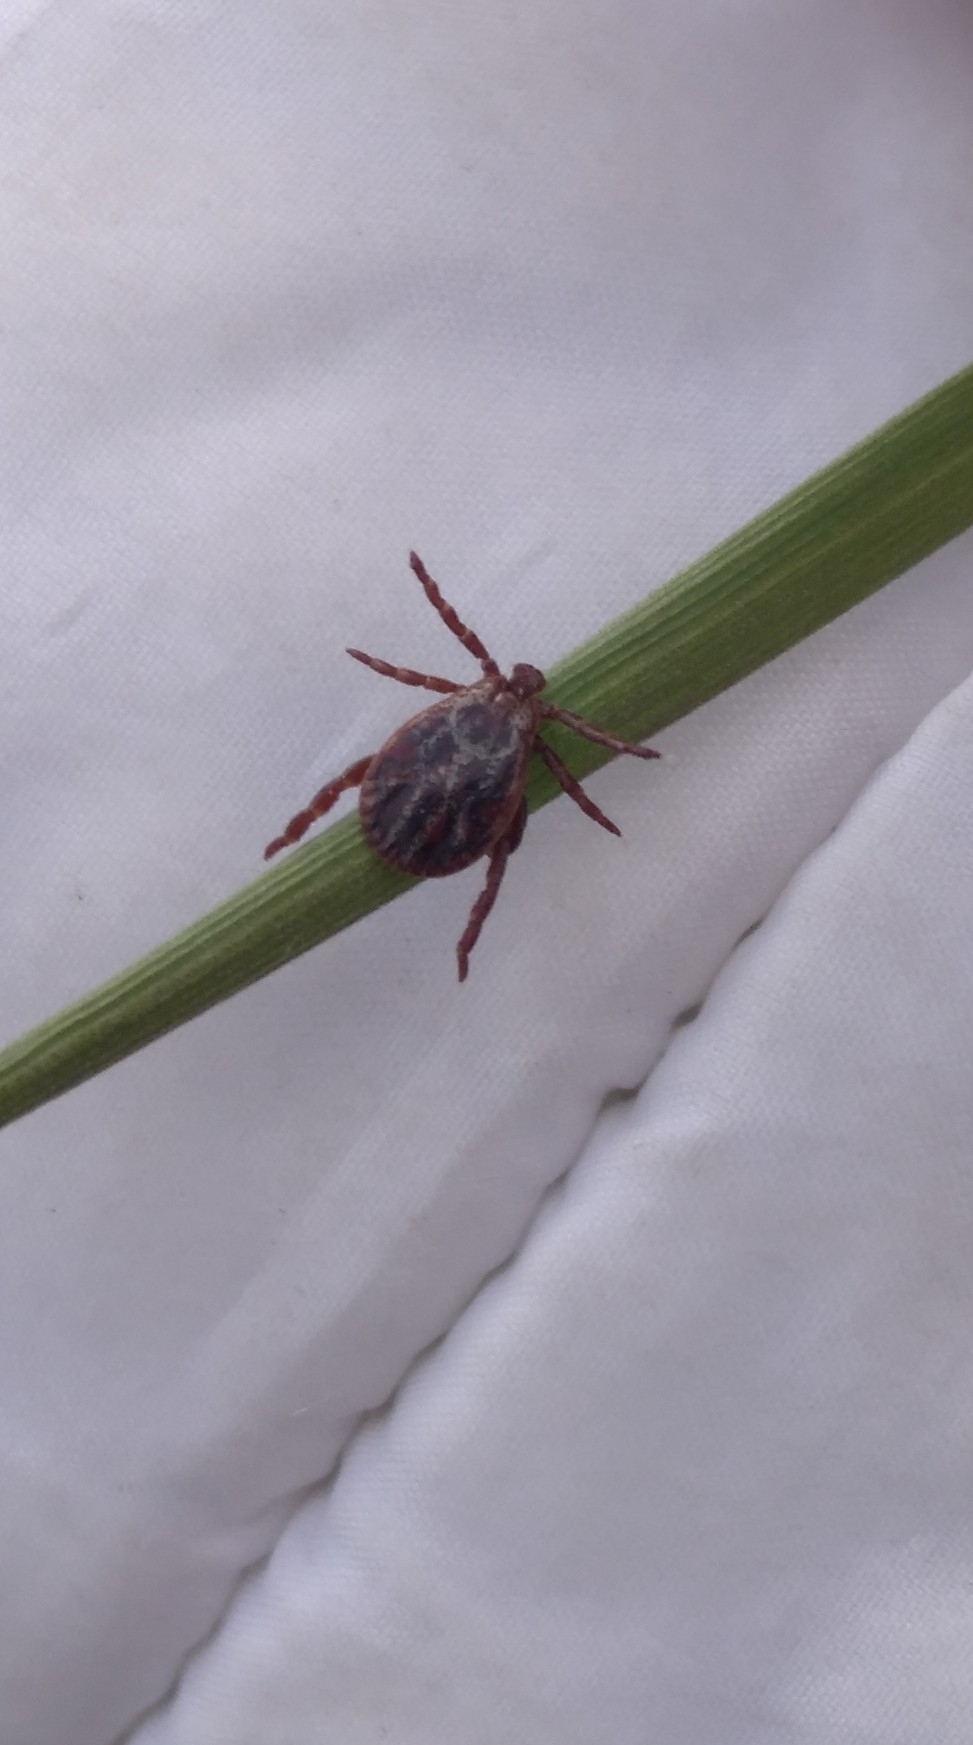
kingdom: Animalia
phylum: Arthropoda
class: Arachnida
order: Ixodida
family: Ixodidae
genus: Dermacentor
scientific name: Dermacentor reticulatus
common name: Ornate cow tick
